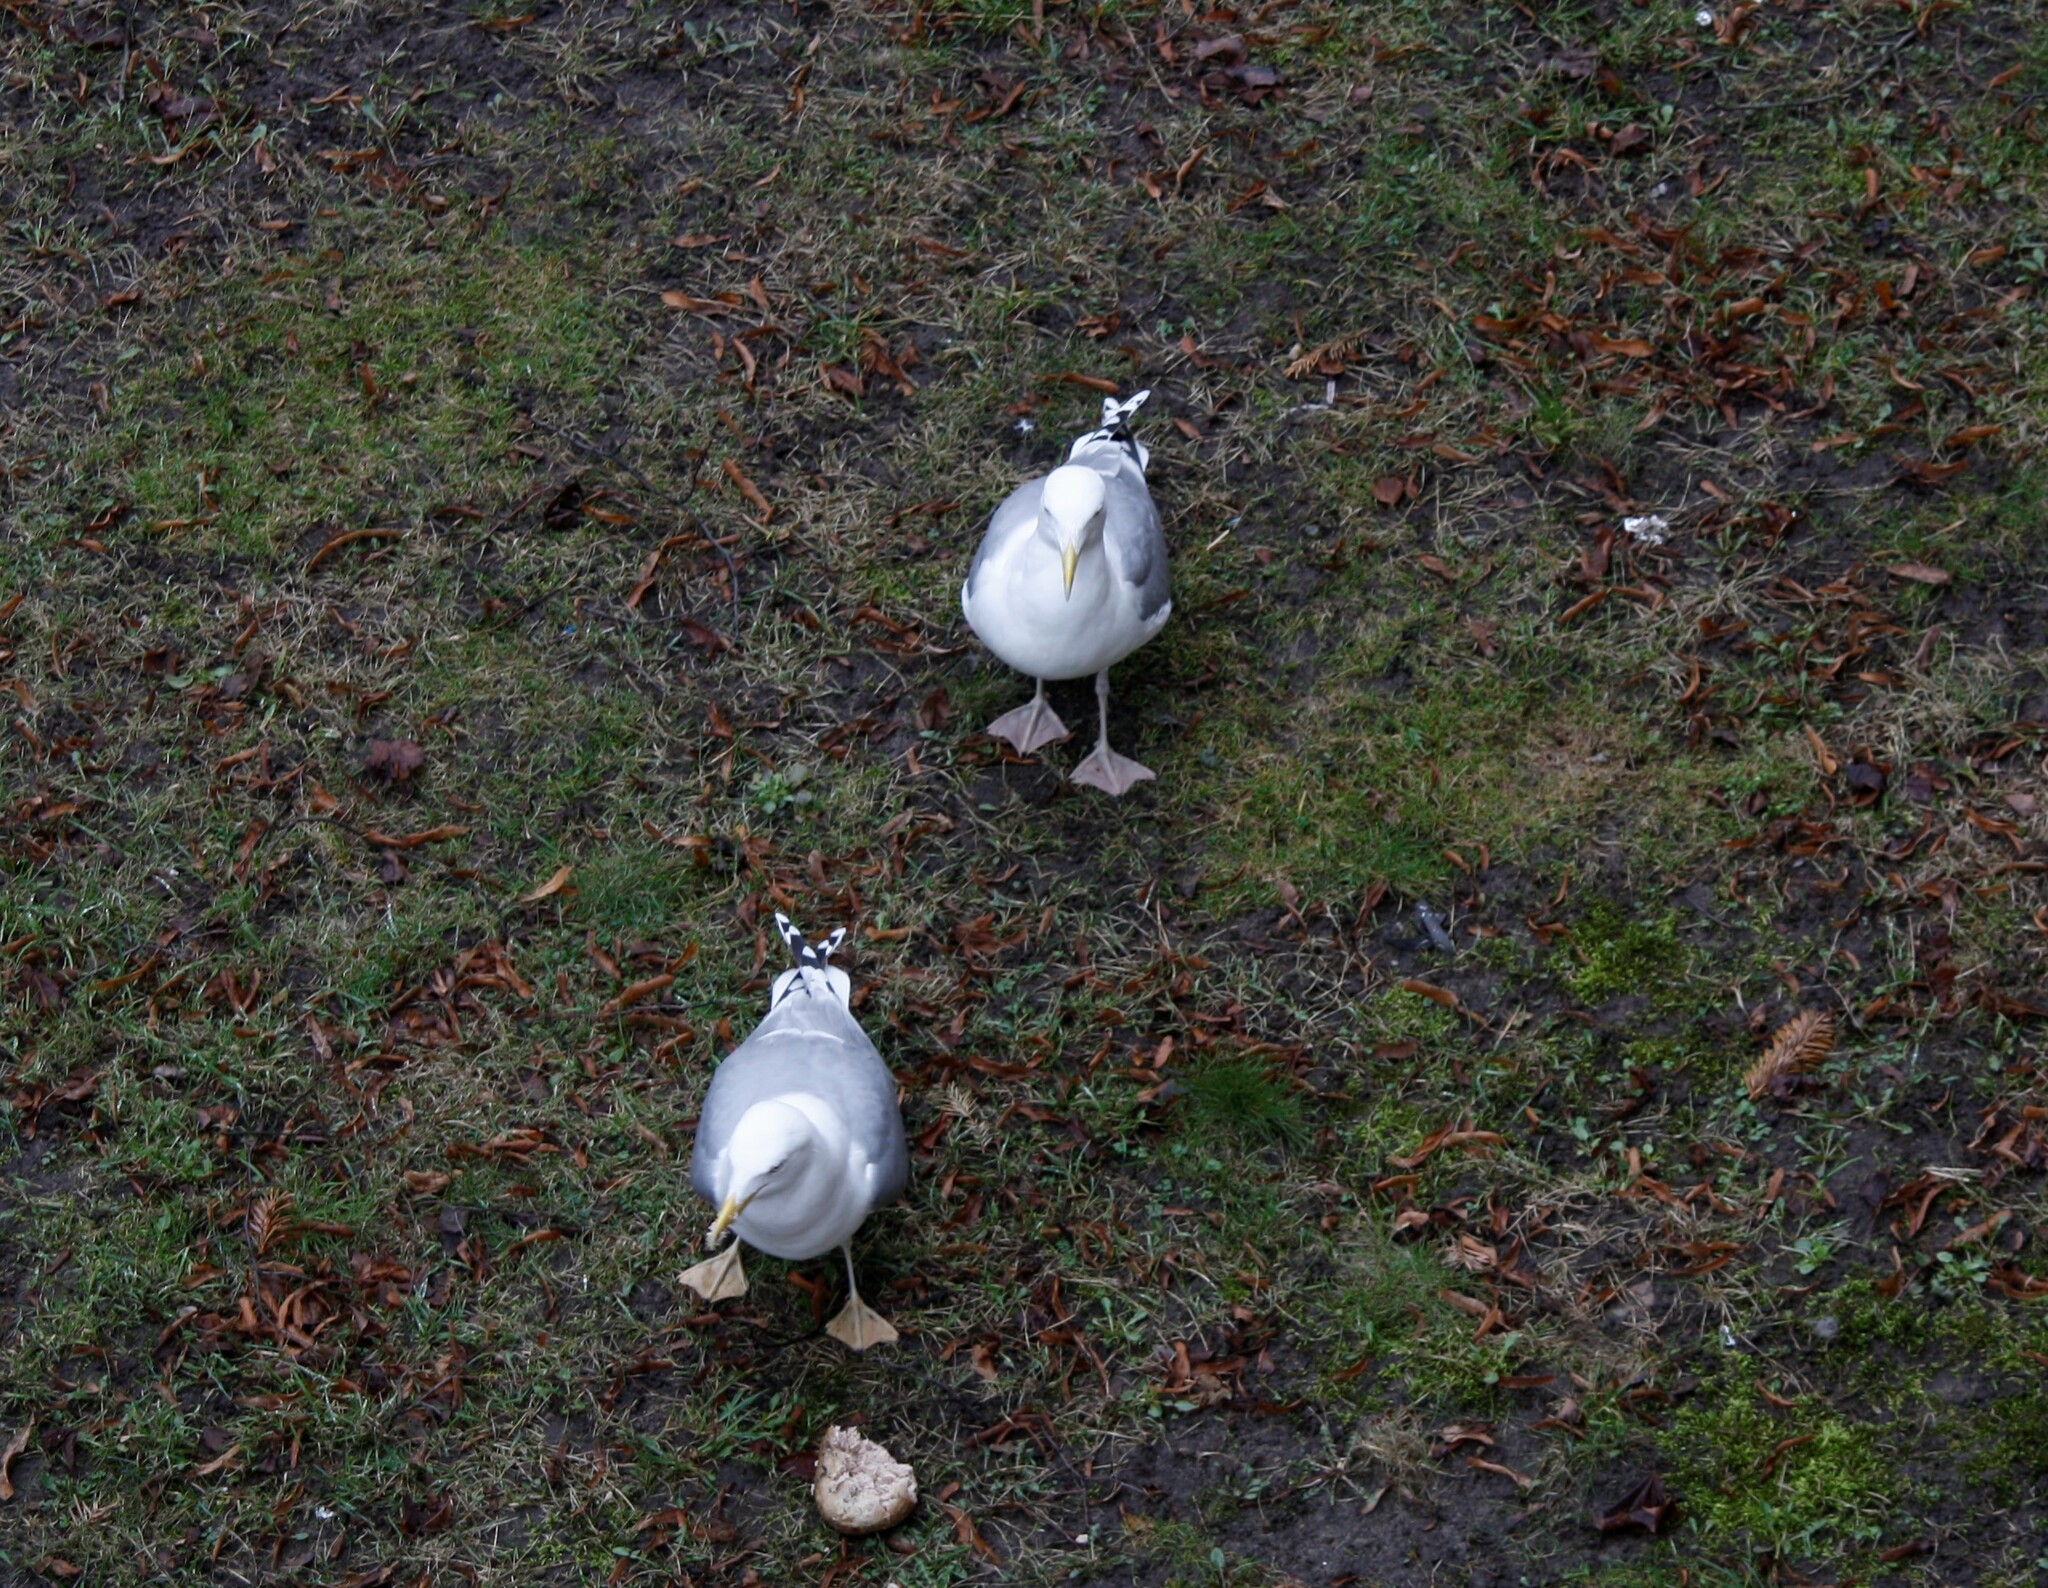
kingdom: Animalia
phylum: Chordata
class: Aves
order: Charadriiformes
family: Laridae
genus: Larus
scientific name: Larus argentatus
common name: Herring gull
